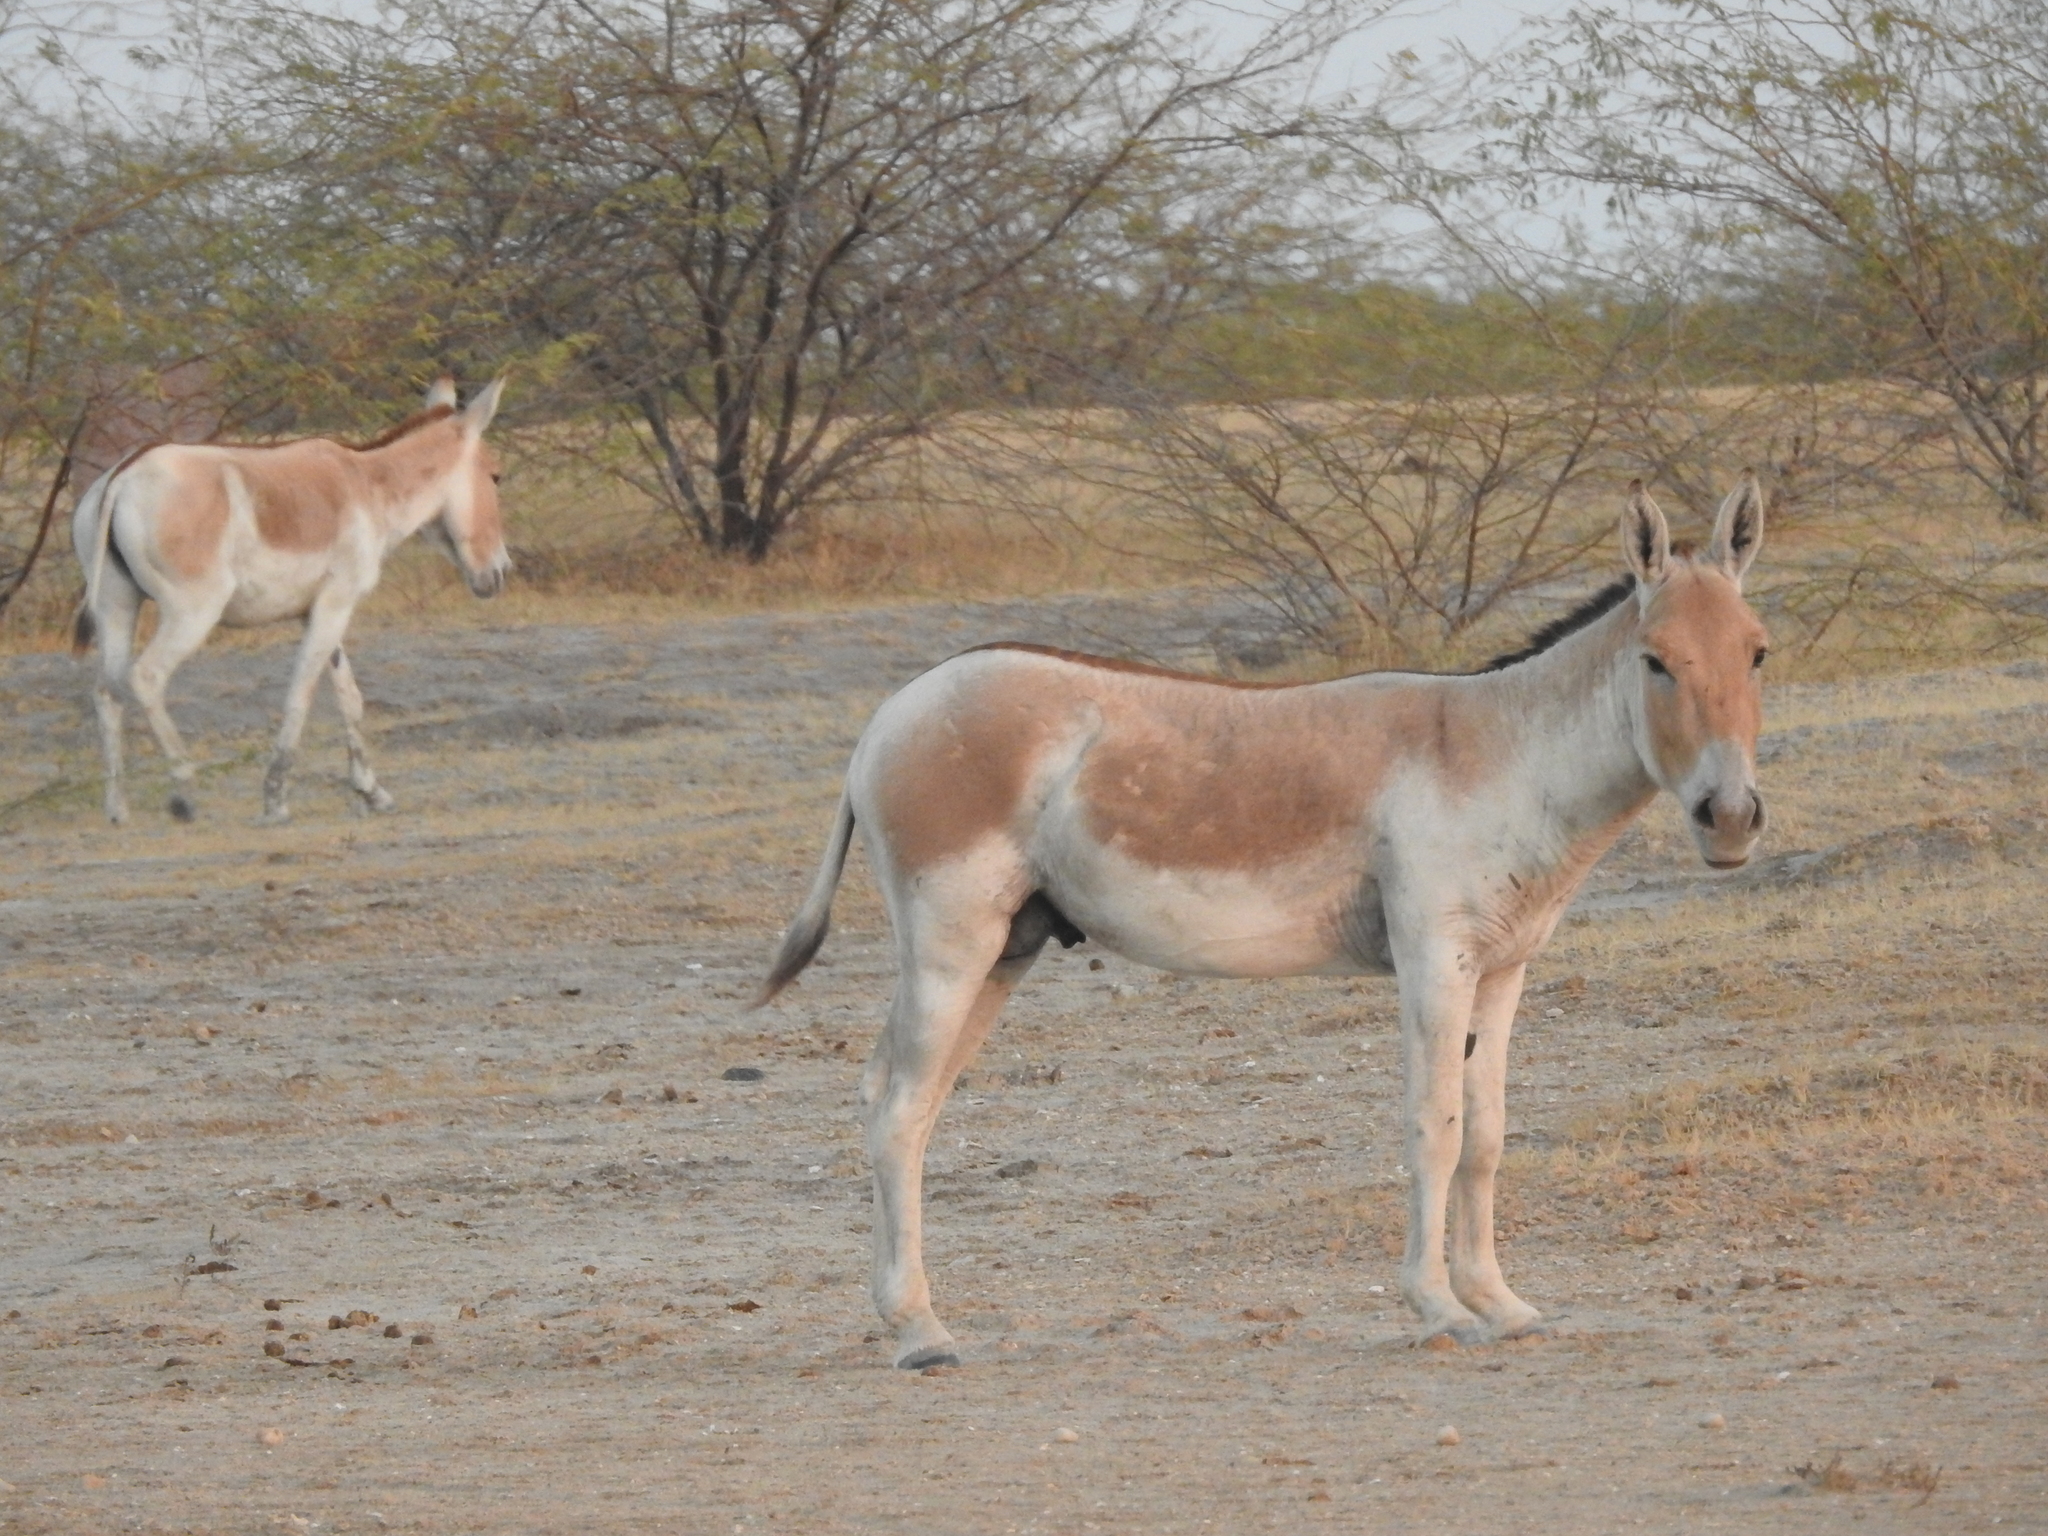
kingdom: Animalia
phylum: Chordata
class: Mammalia
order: Perissodactyla
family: Equidae
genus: Equus
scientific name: Equus khur
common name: Indian wild ass
